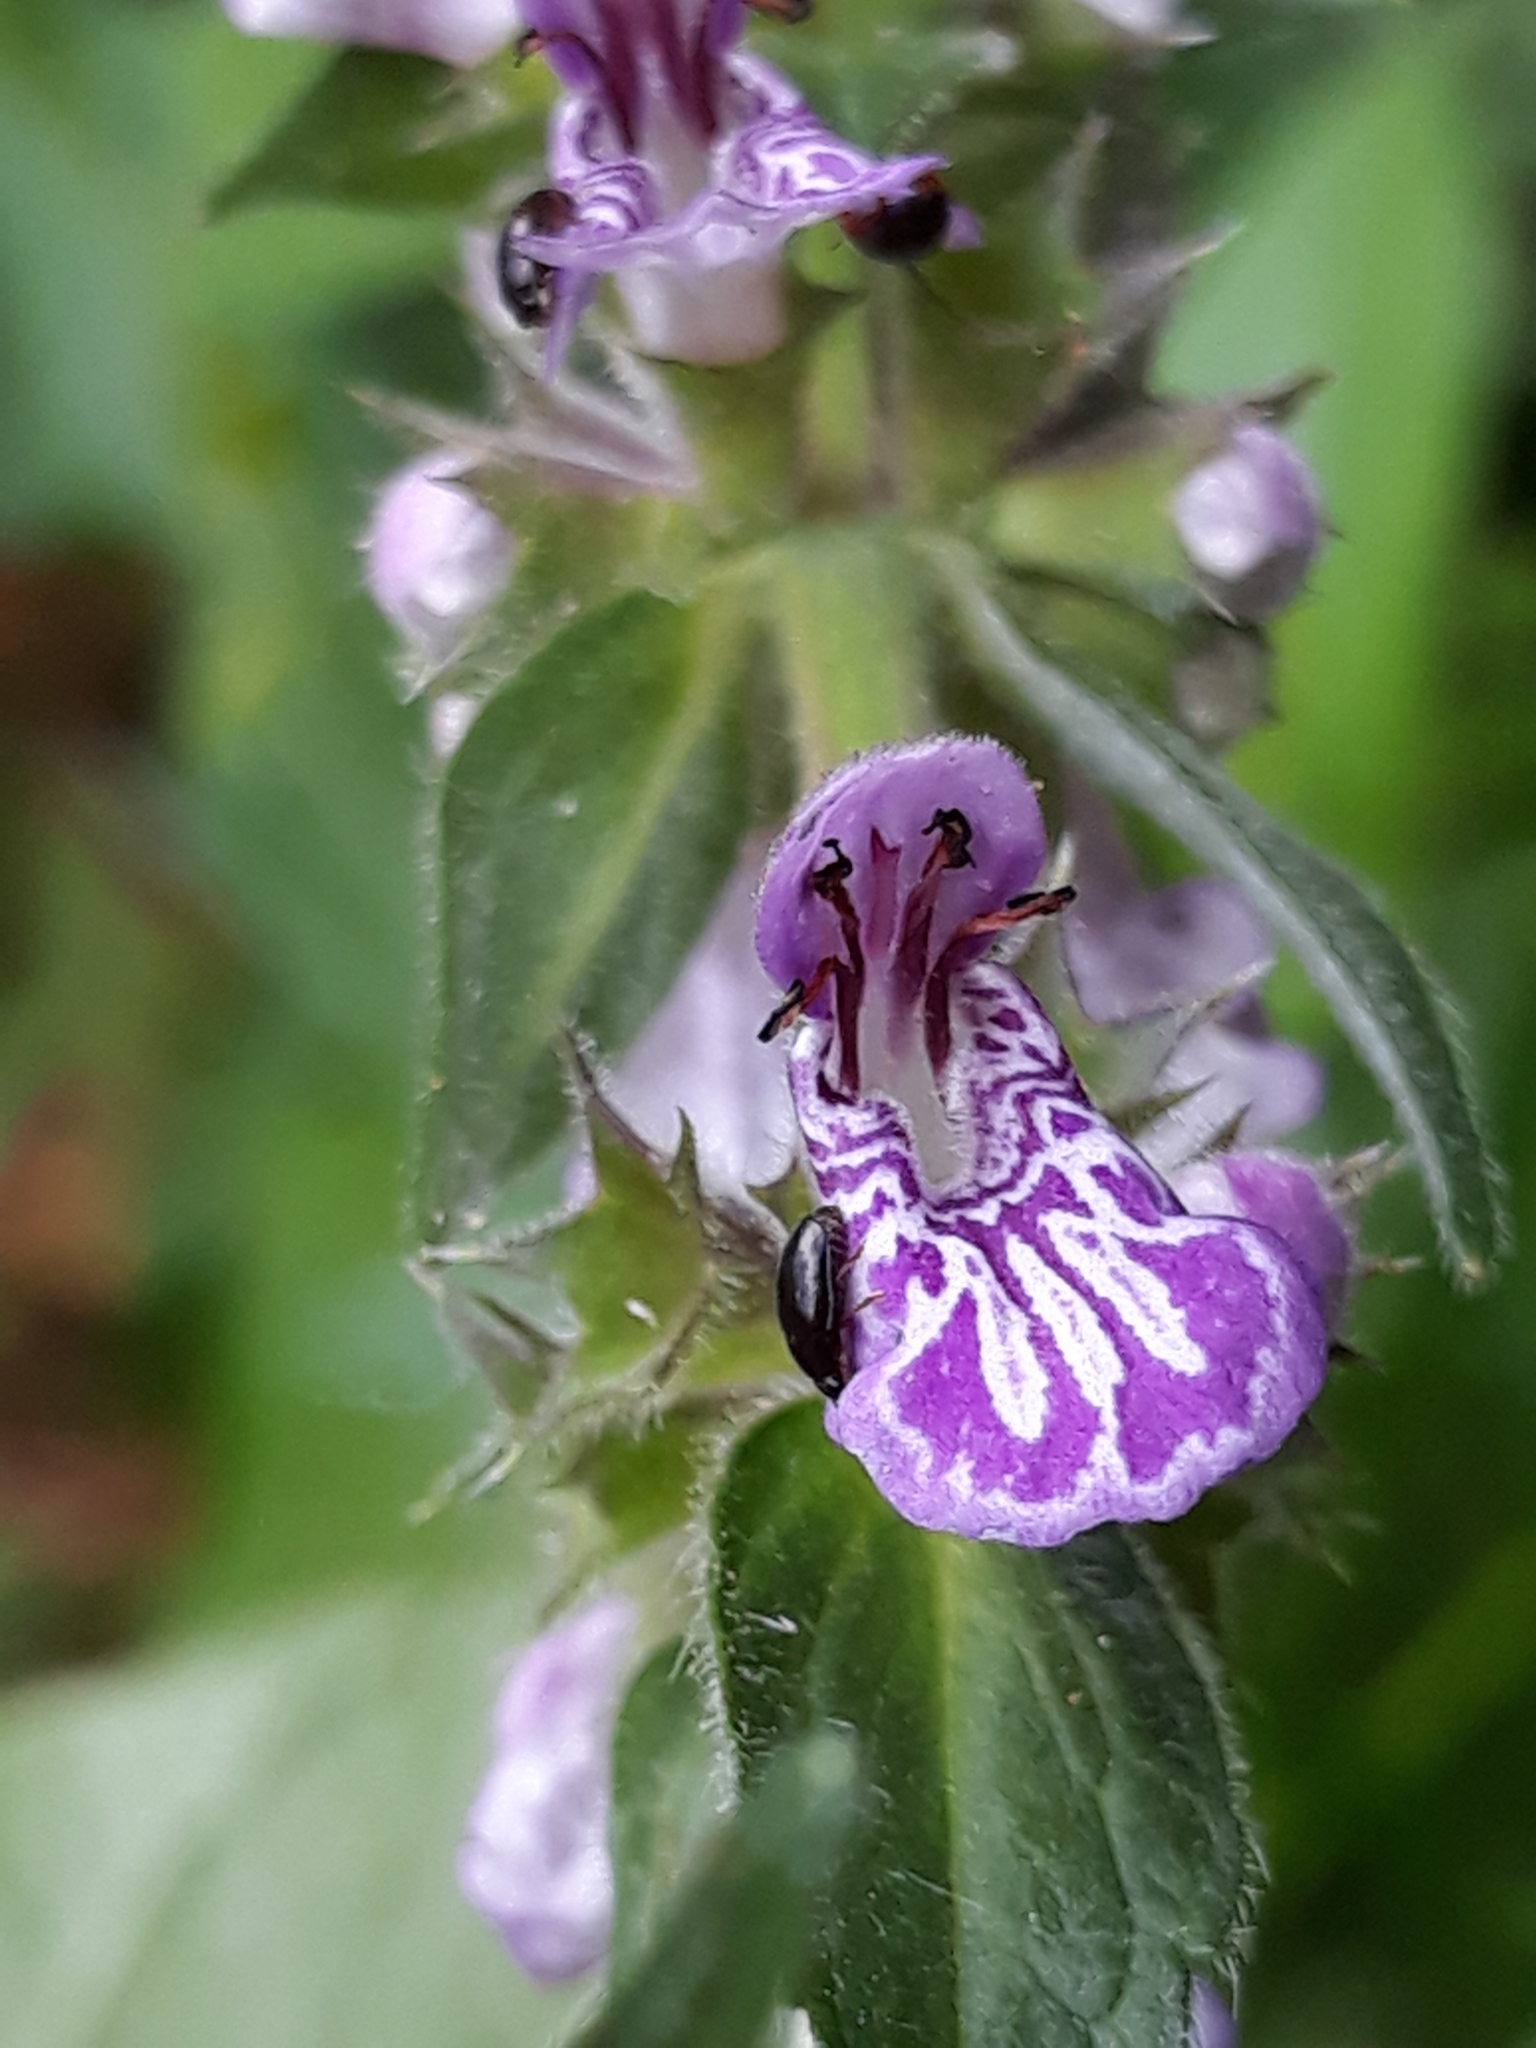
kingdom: Plantae
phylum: Tracheophyta
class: Magnoliopsida
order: Lamiales
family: Lamiaceae
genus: Stachys
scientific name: Stachys palustris
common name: Marsh woundwort
